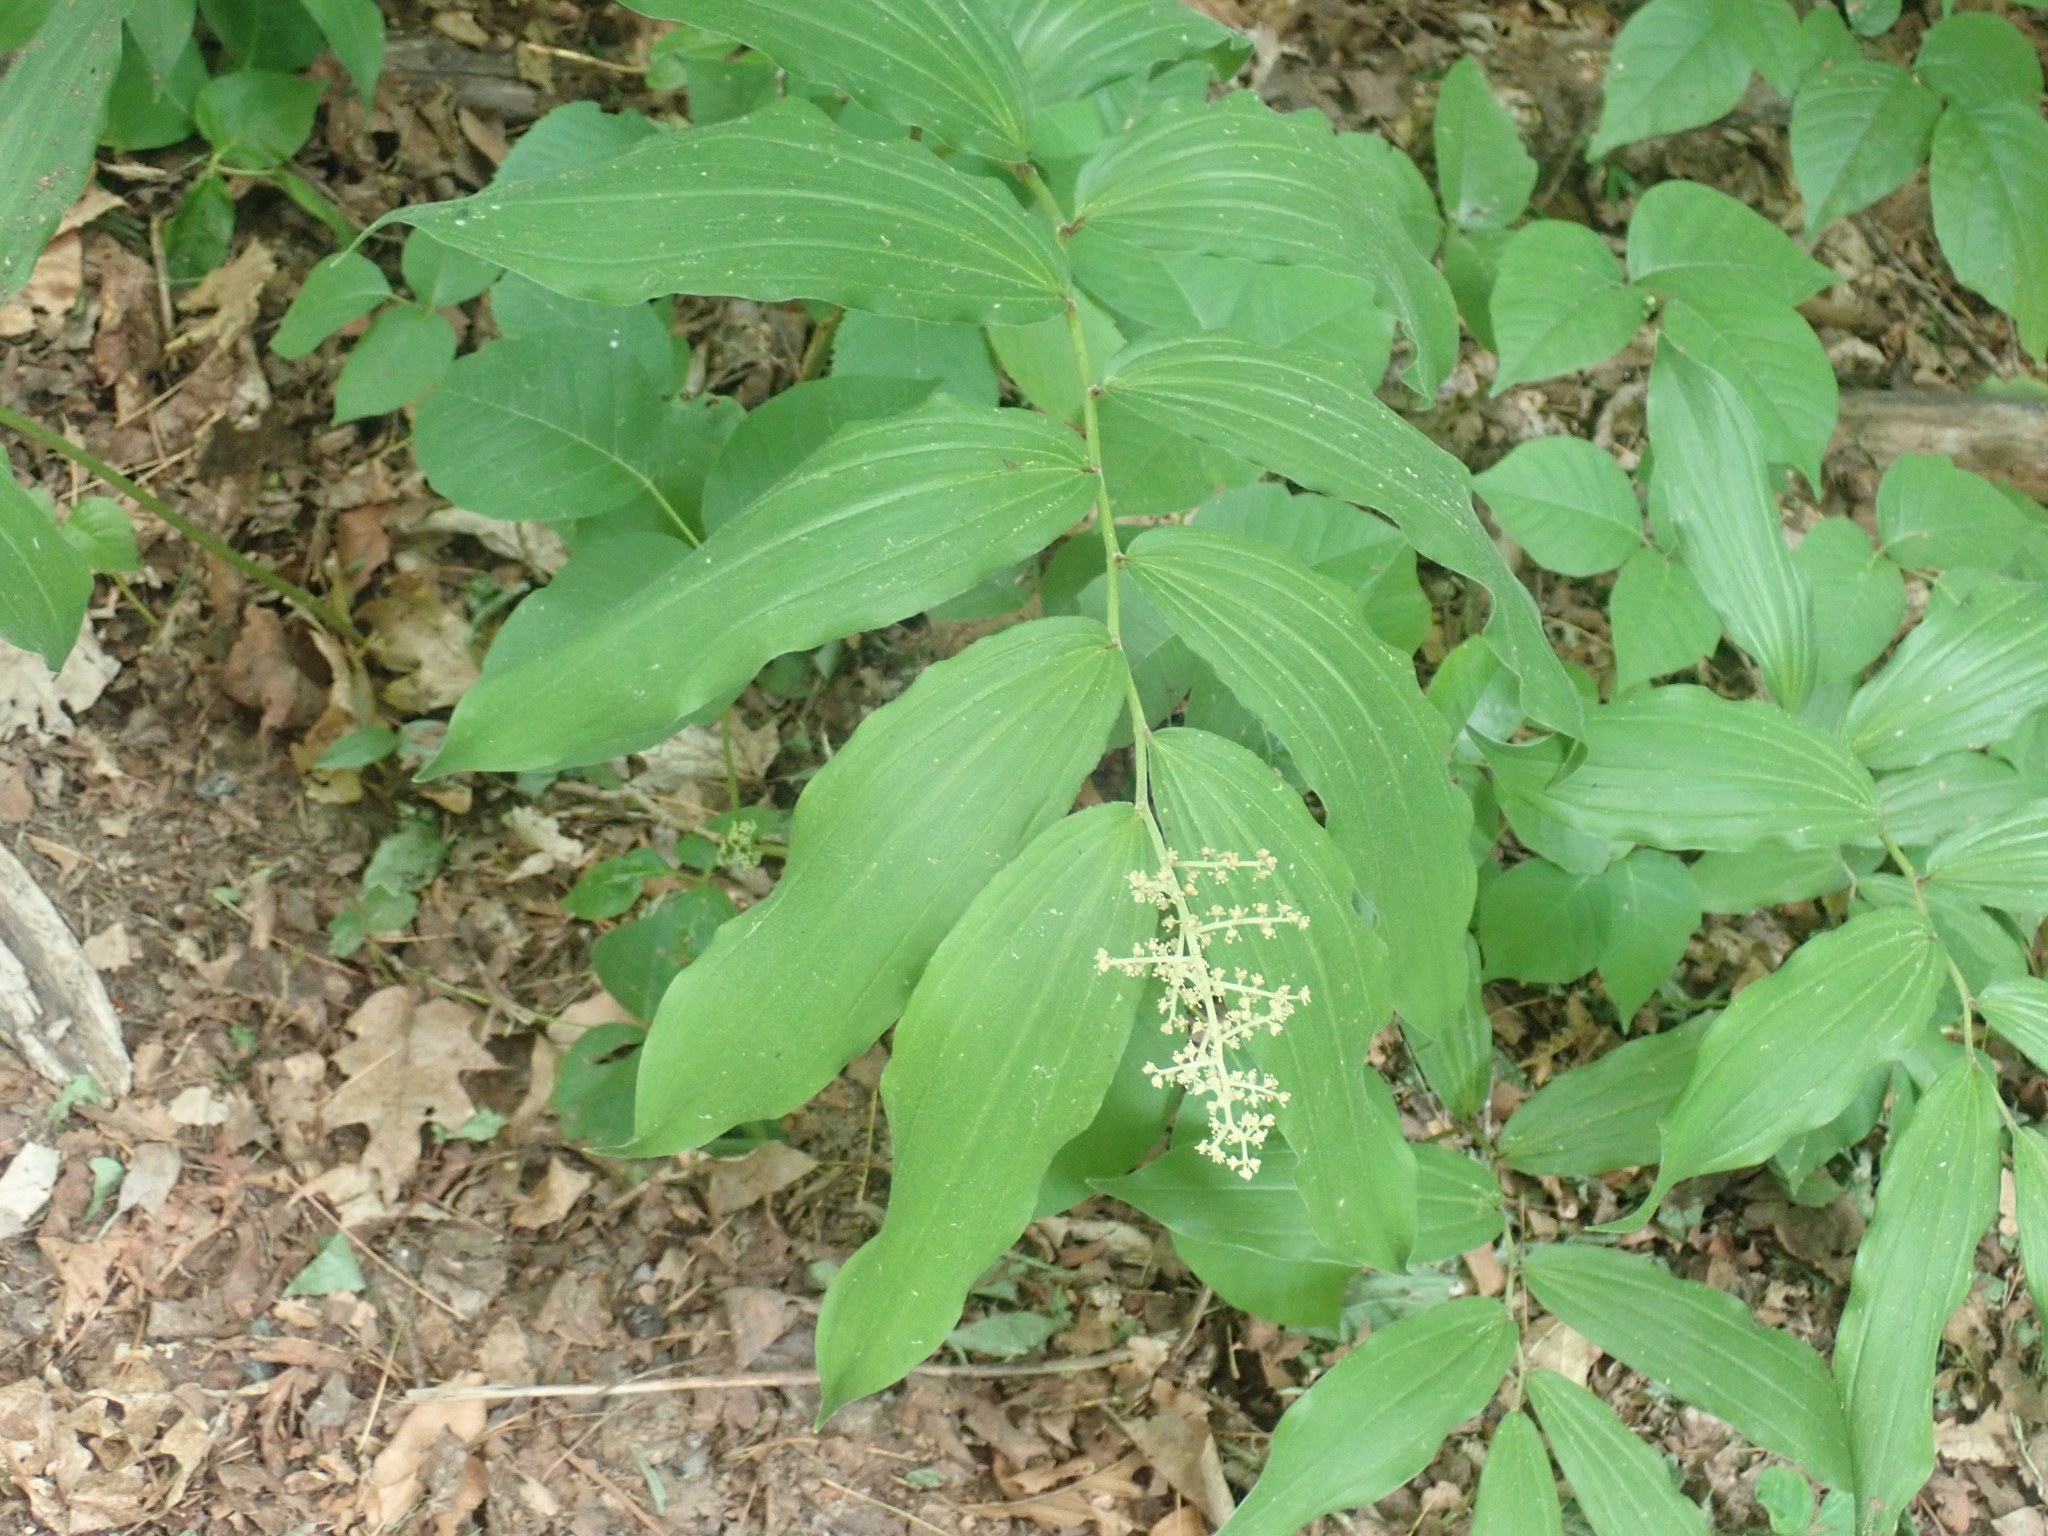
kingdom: Plantae
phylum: Tracheophyta
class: Liliopsida
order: Asparagales
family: Asparagaceae
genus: Maianthemum
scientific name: Maianthemum racemosum
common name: False spikenard
